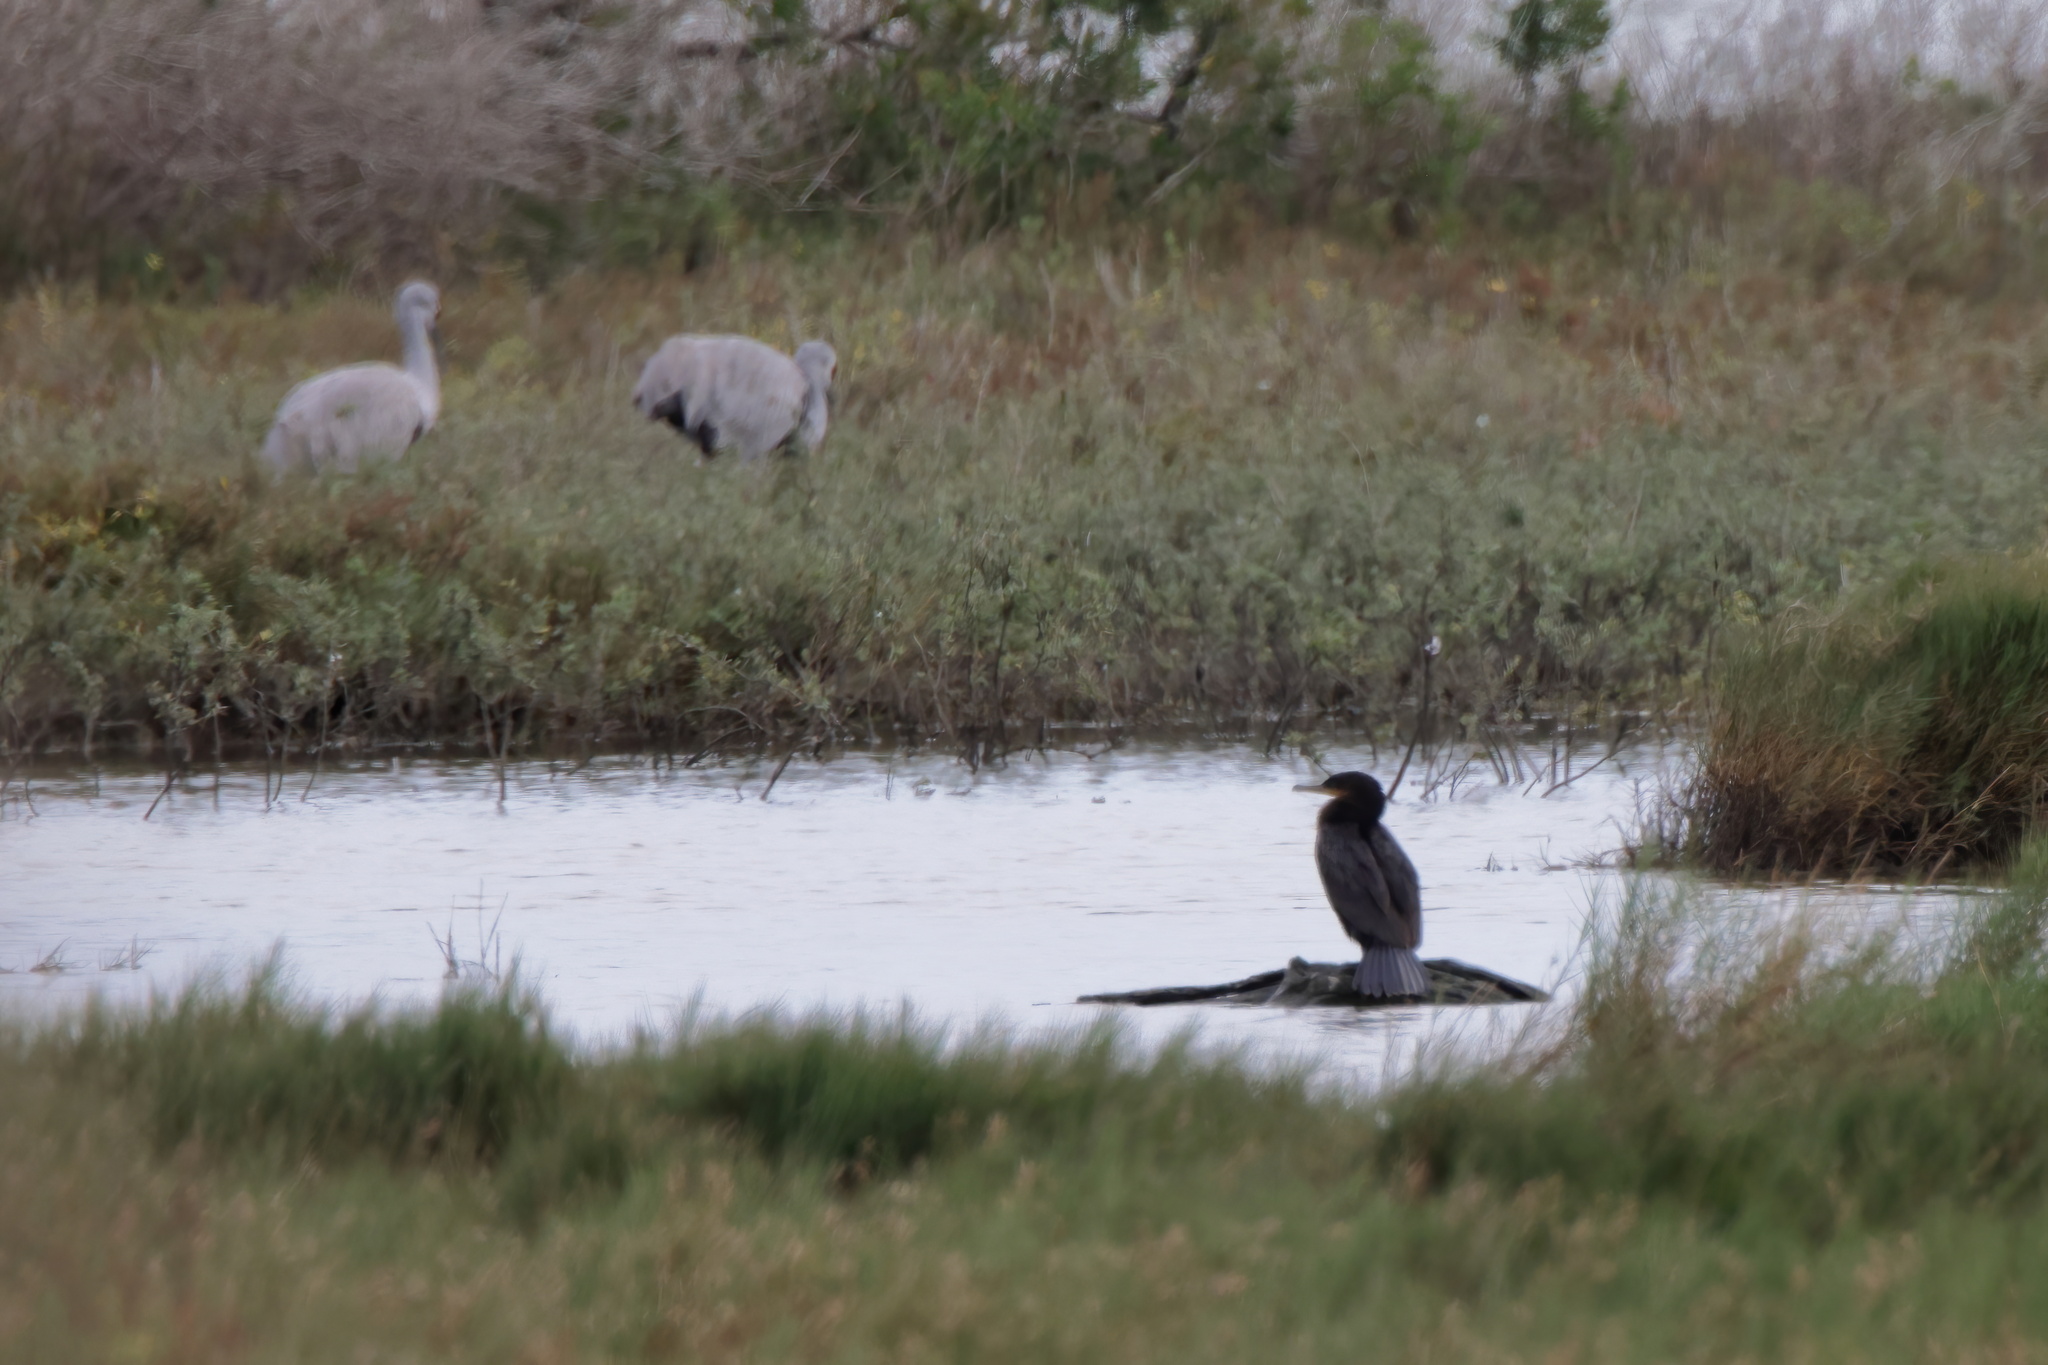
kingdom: Animalia
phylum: Chordata
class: Aves
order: Suliformes
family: Phalacrocoracidae
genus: Phalacrocorax
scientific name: Phalacrocorax brasilianus
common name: Neotropic cormorant
